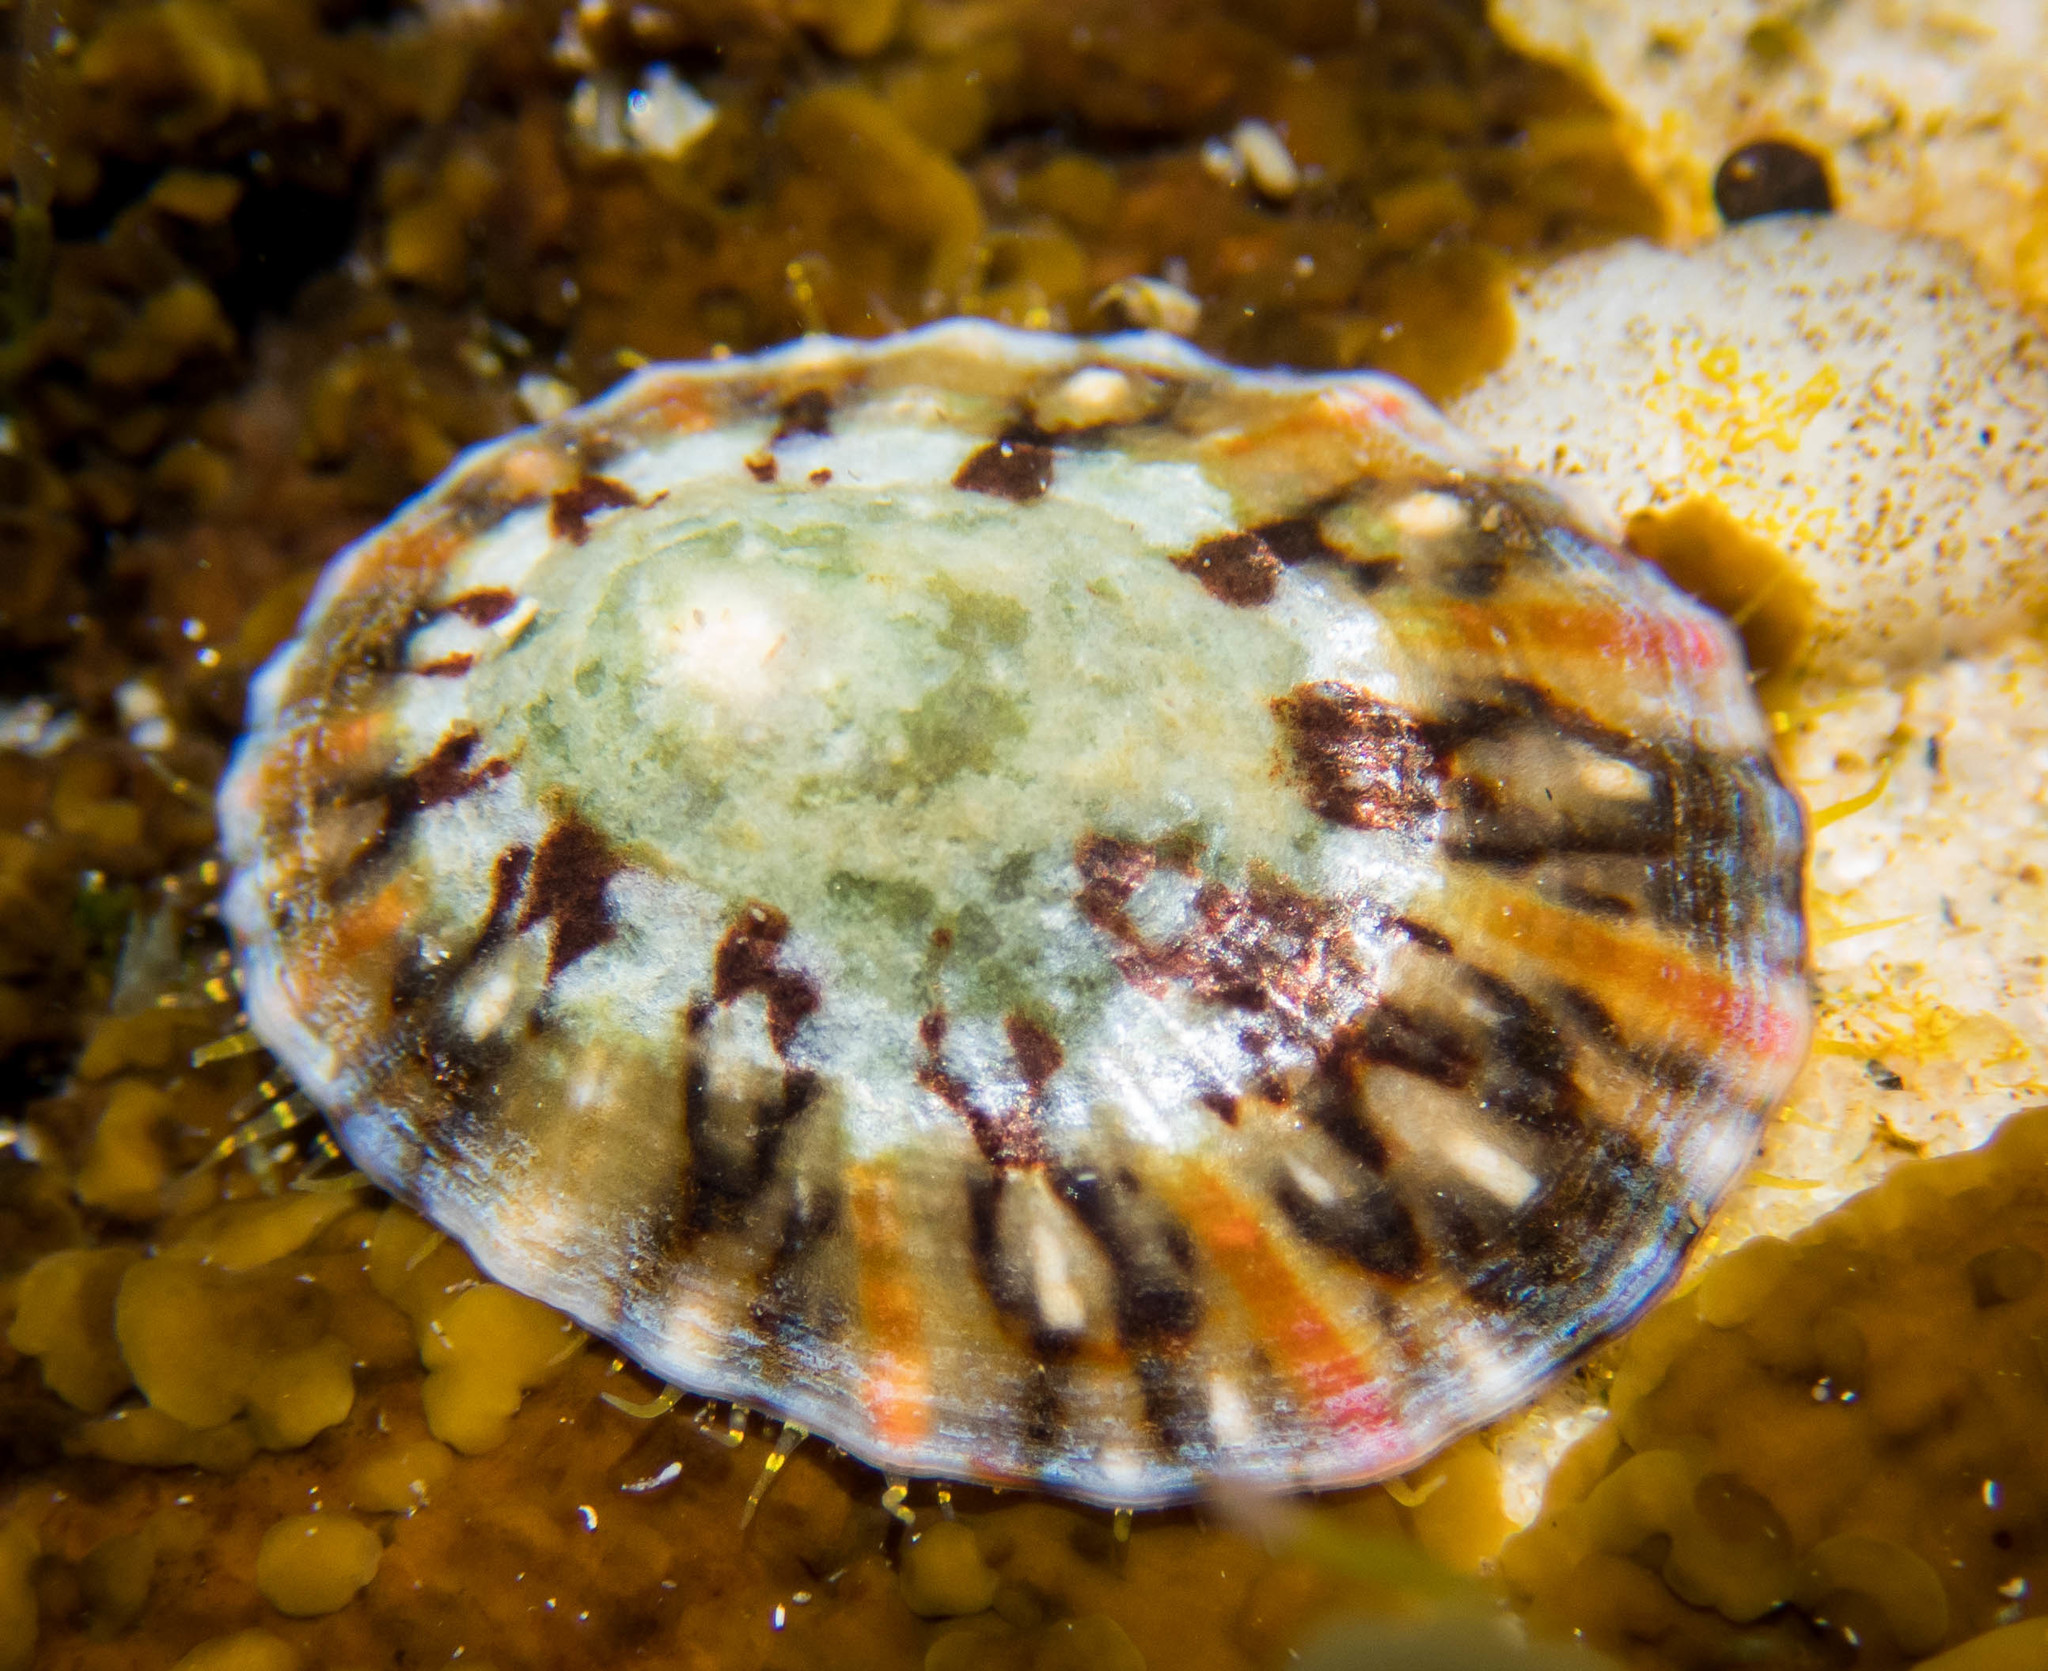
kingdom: Animalia
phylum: Mollusca
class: Gastropoda
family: Nacellidae
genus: Cellana
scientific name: Cellana tramoserica
